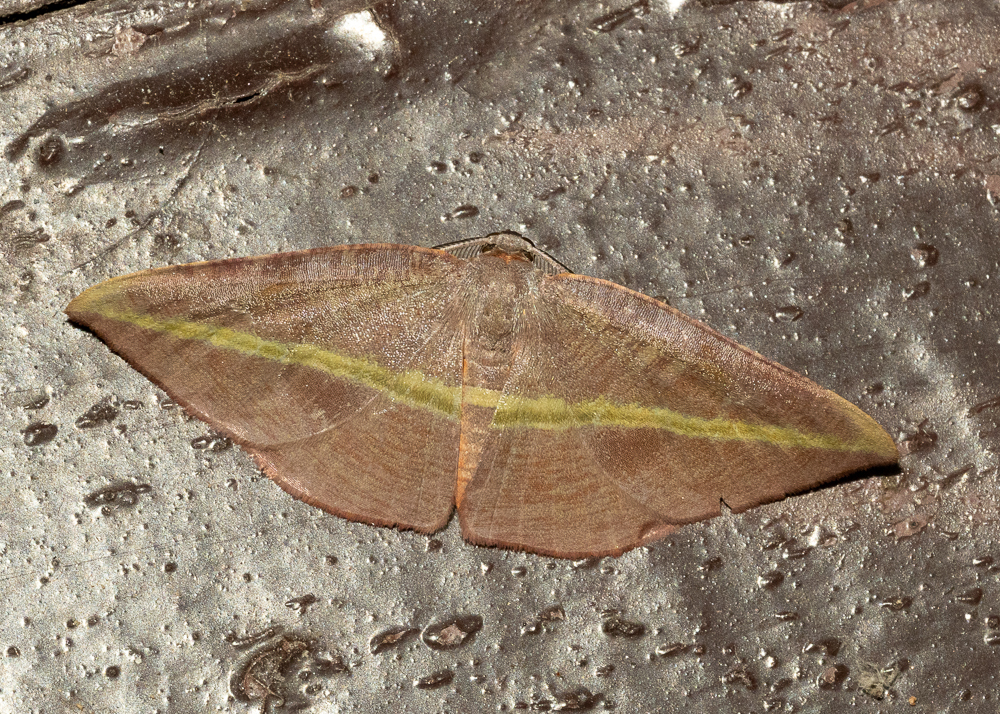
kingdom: Animalia
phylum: Arthropoda
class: Insecta
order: Lepidoptera
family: Geometridae
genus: Hypochrosis
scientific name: Hypochrosis iris
